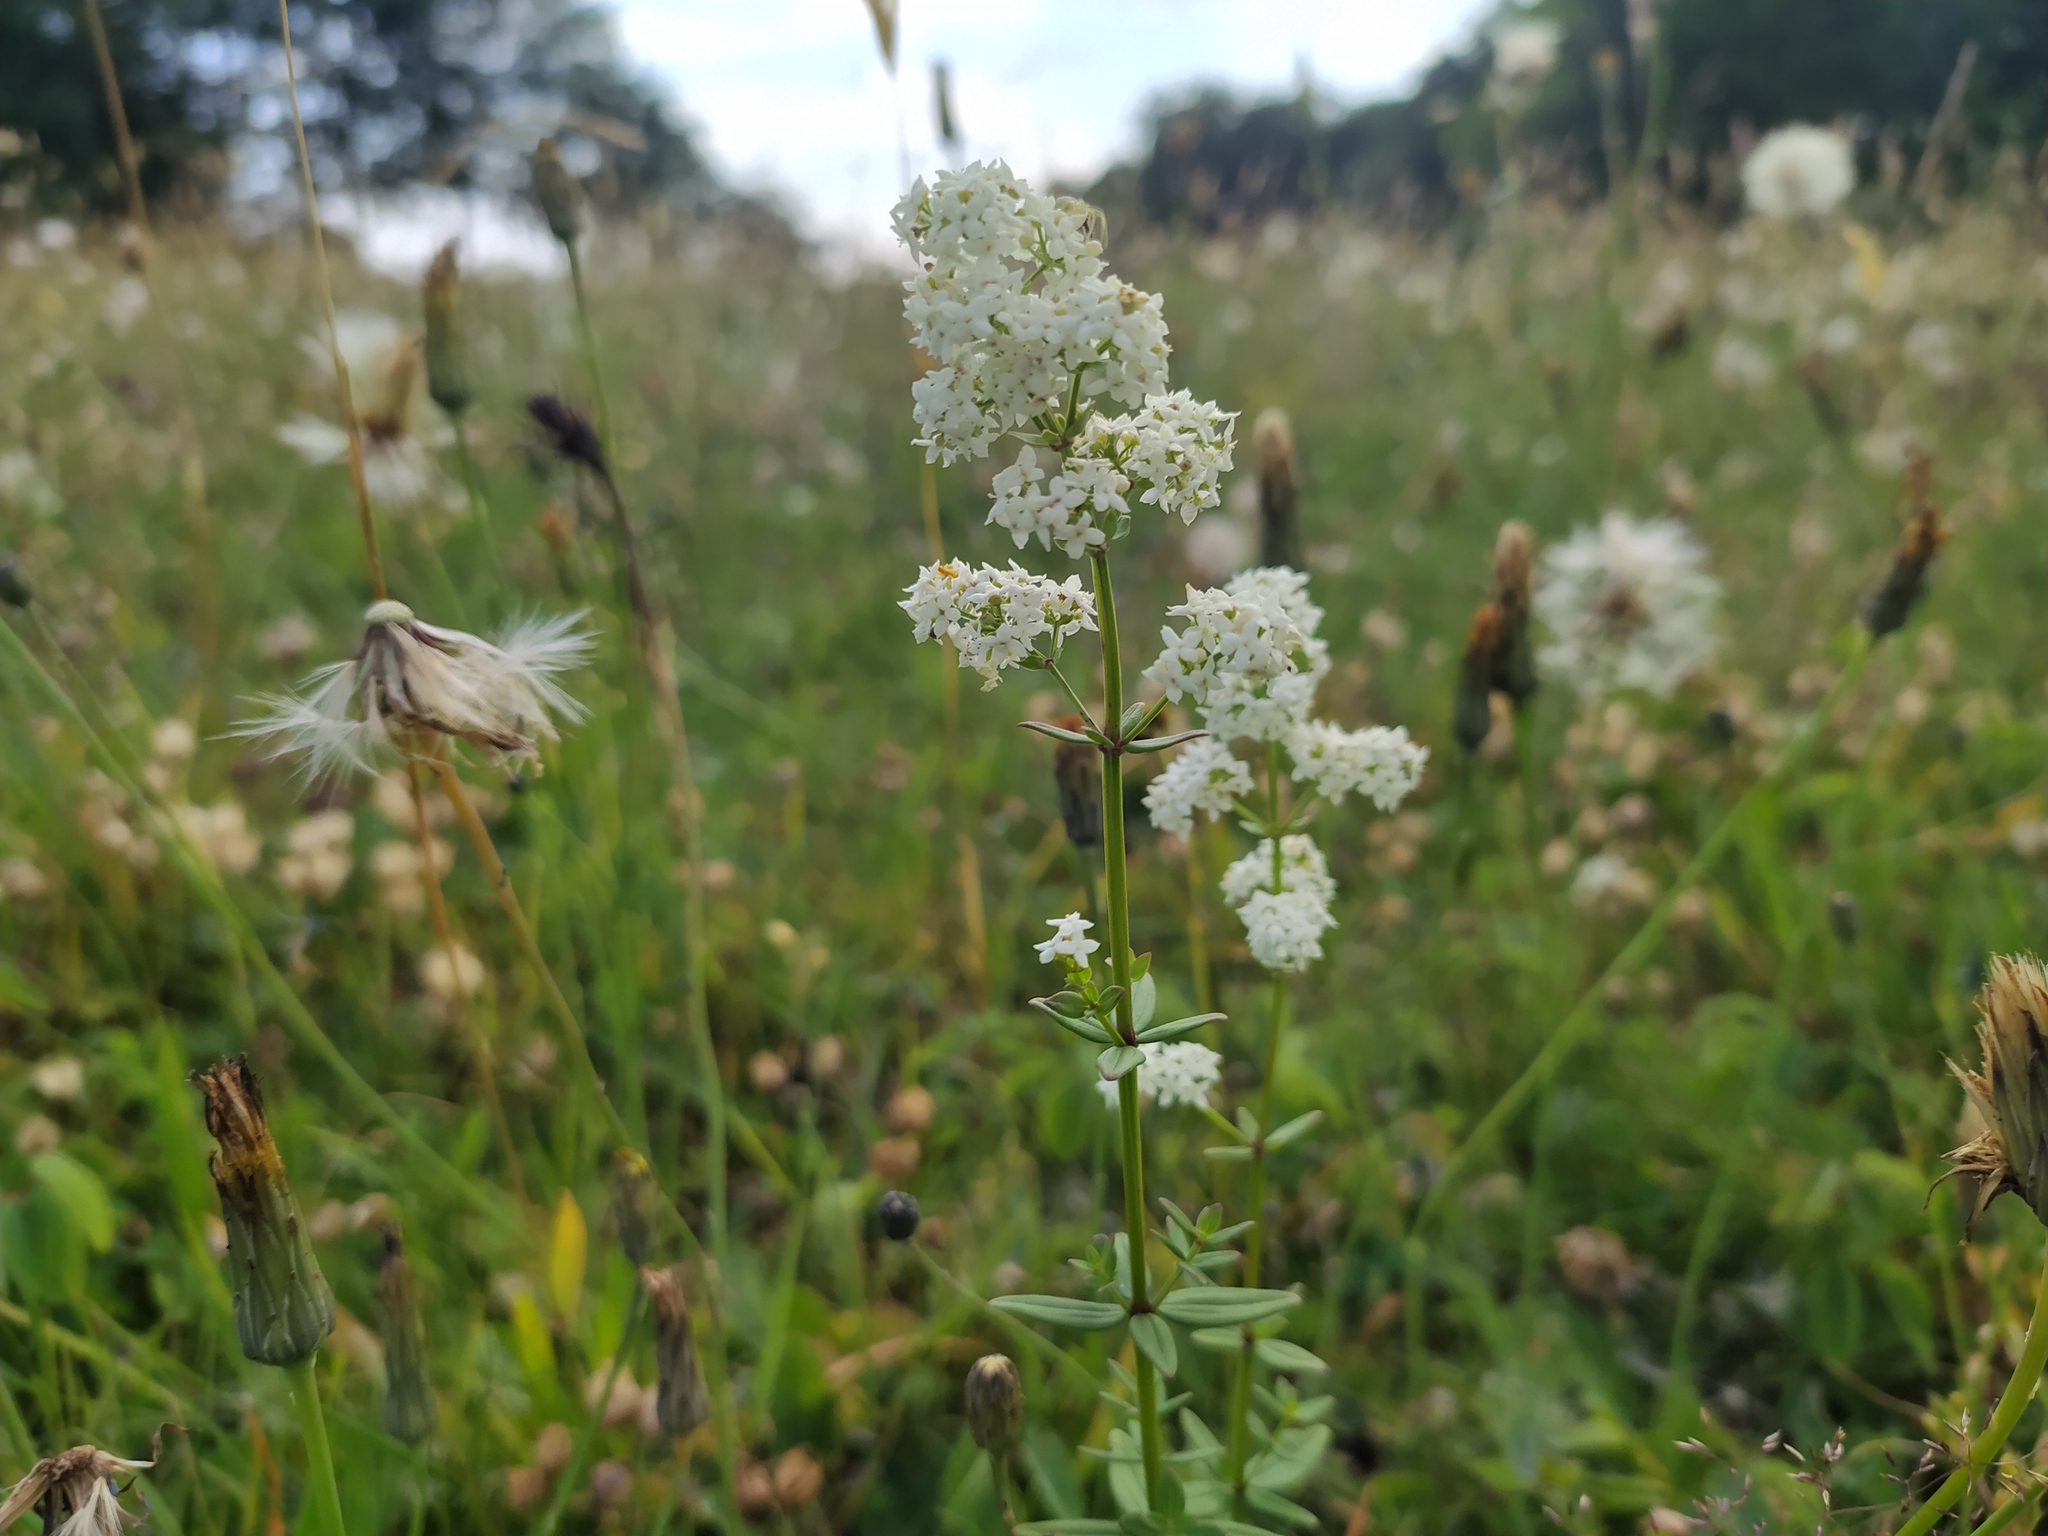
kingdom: Plantae
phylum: Tracheophyta
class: Magnoliopsida
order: Gentianales
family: Rubiaceae
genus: Galium
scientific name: Galium boreale
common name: Northern bedstraw
